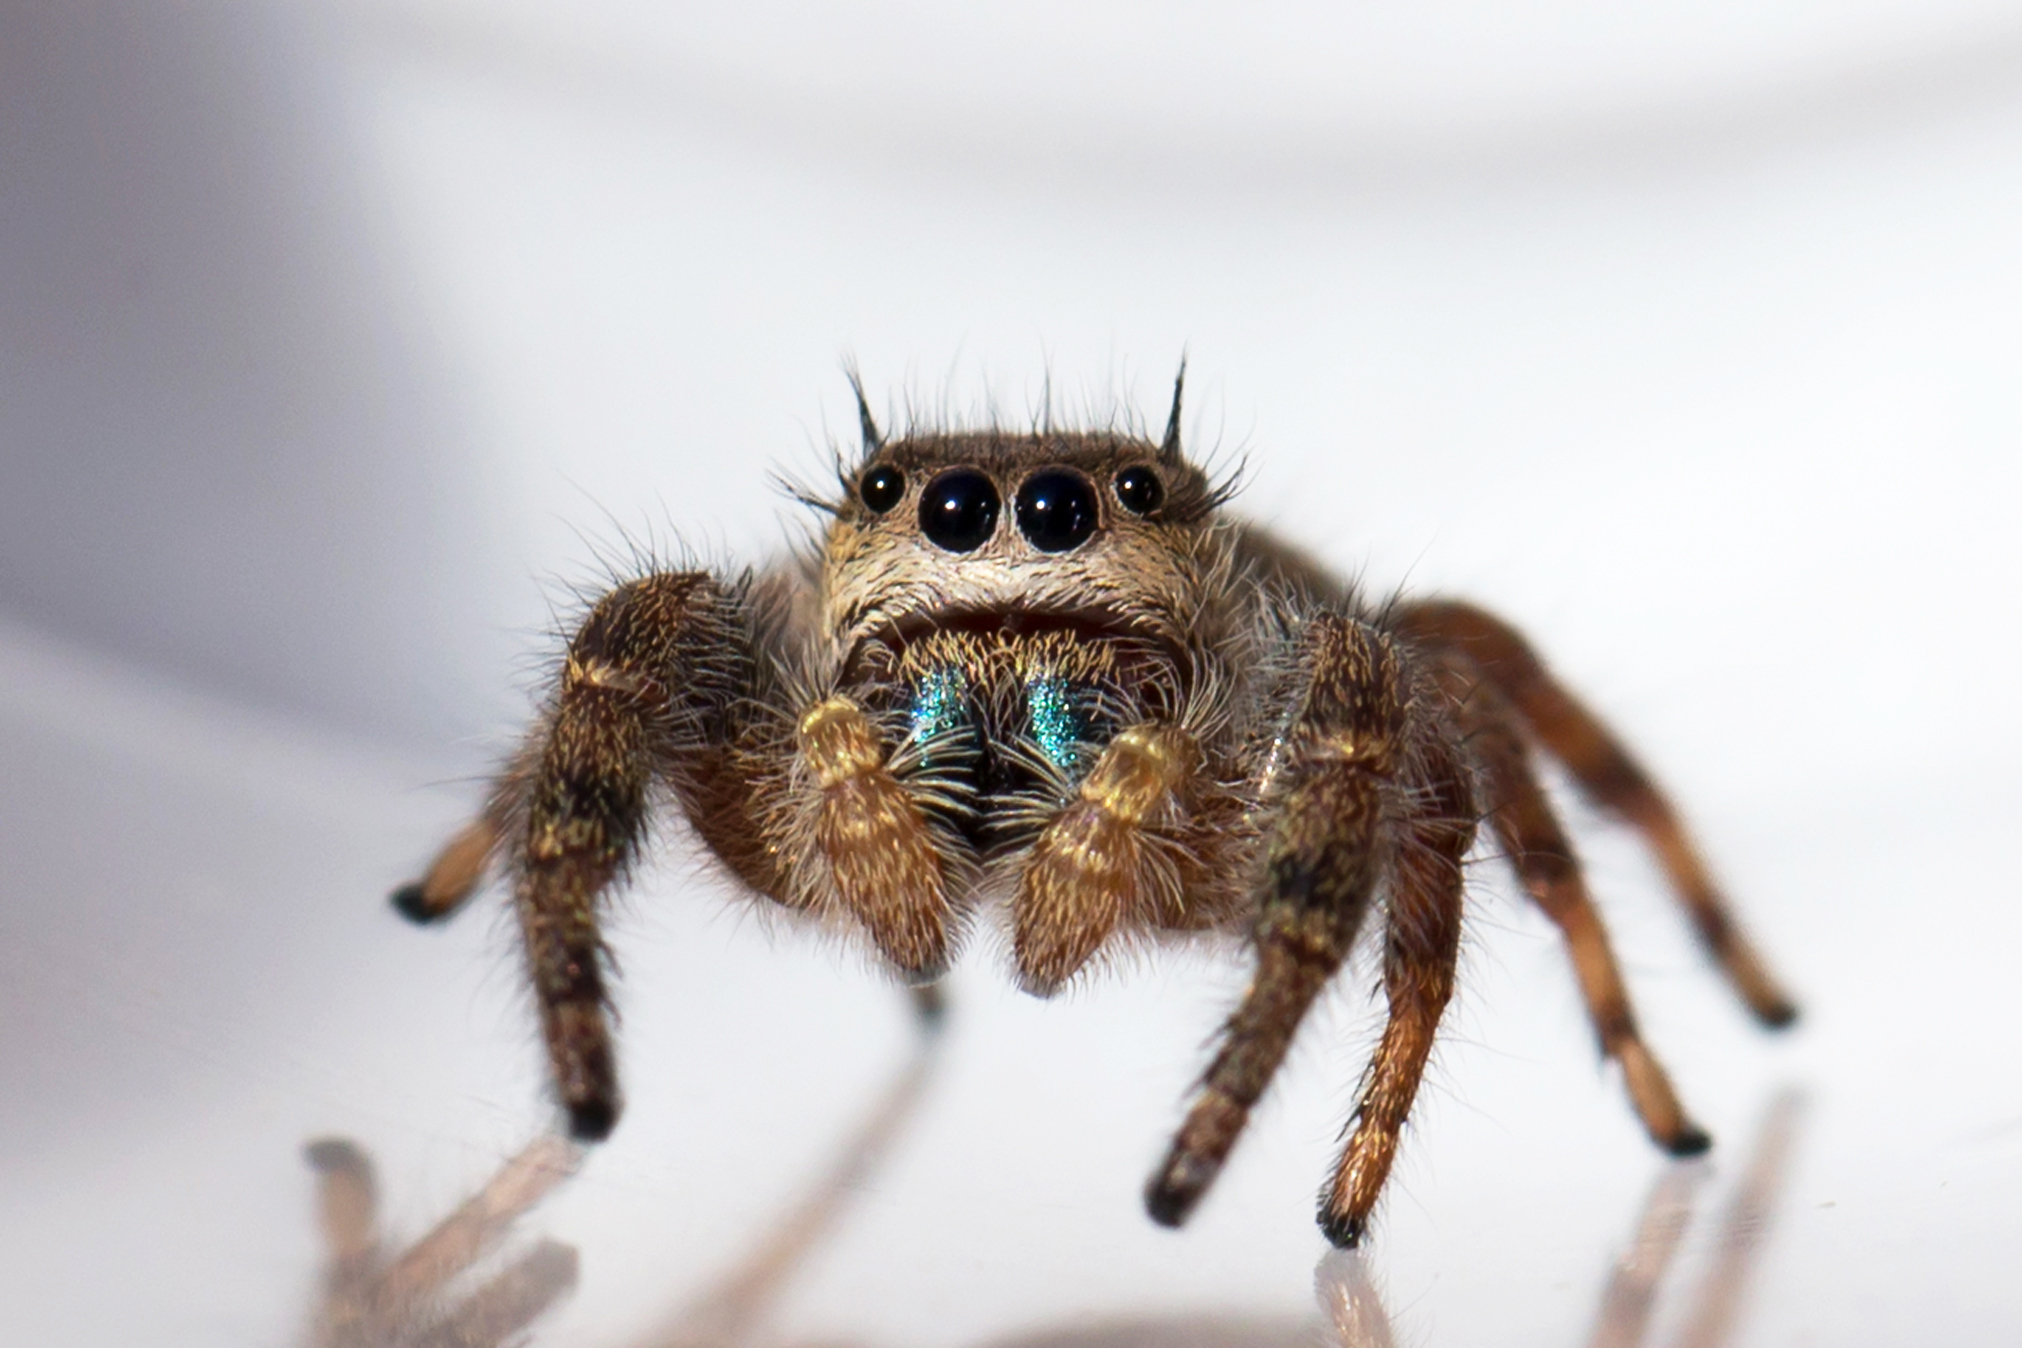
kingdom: Animalia
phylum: Arthropoda
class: Arachnida
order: Araneae
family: Salticidae
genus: Phidippus
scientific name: Phidippus princeps
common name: Grayish jumping spider
